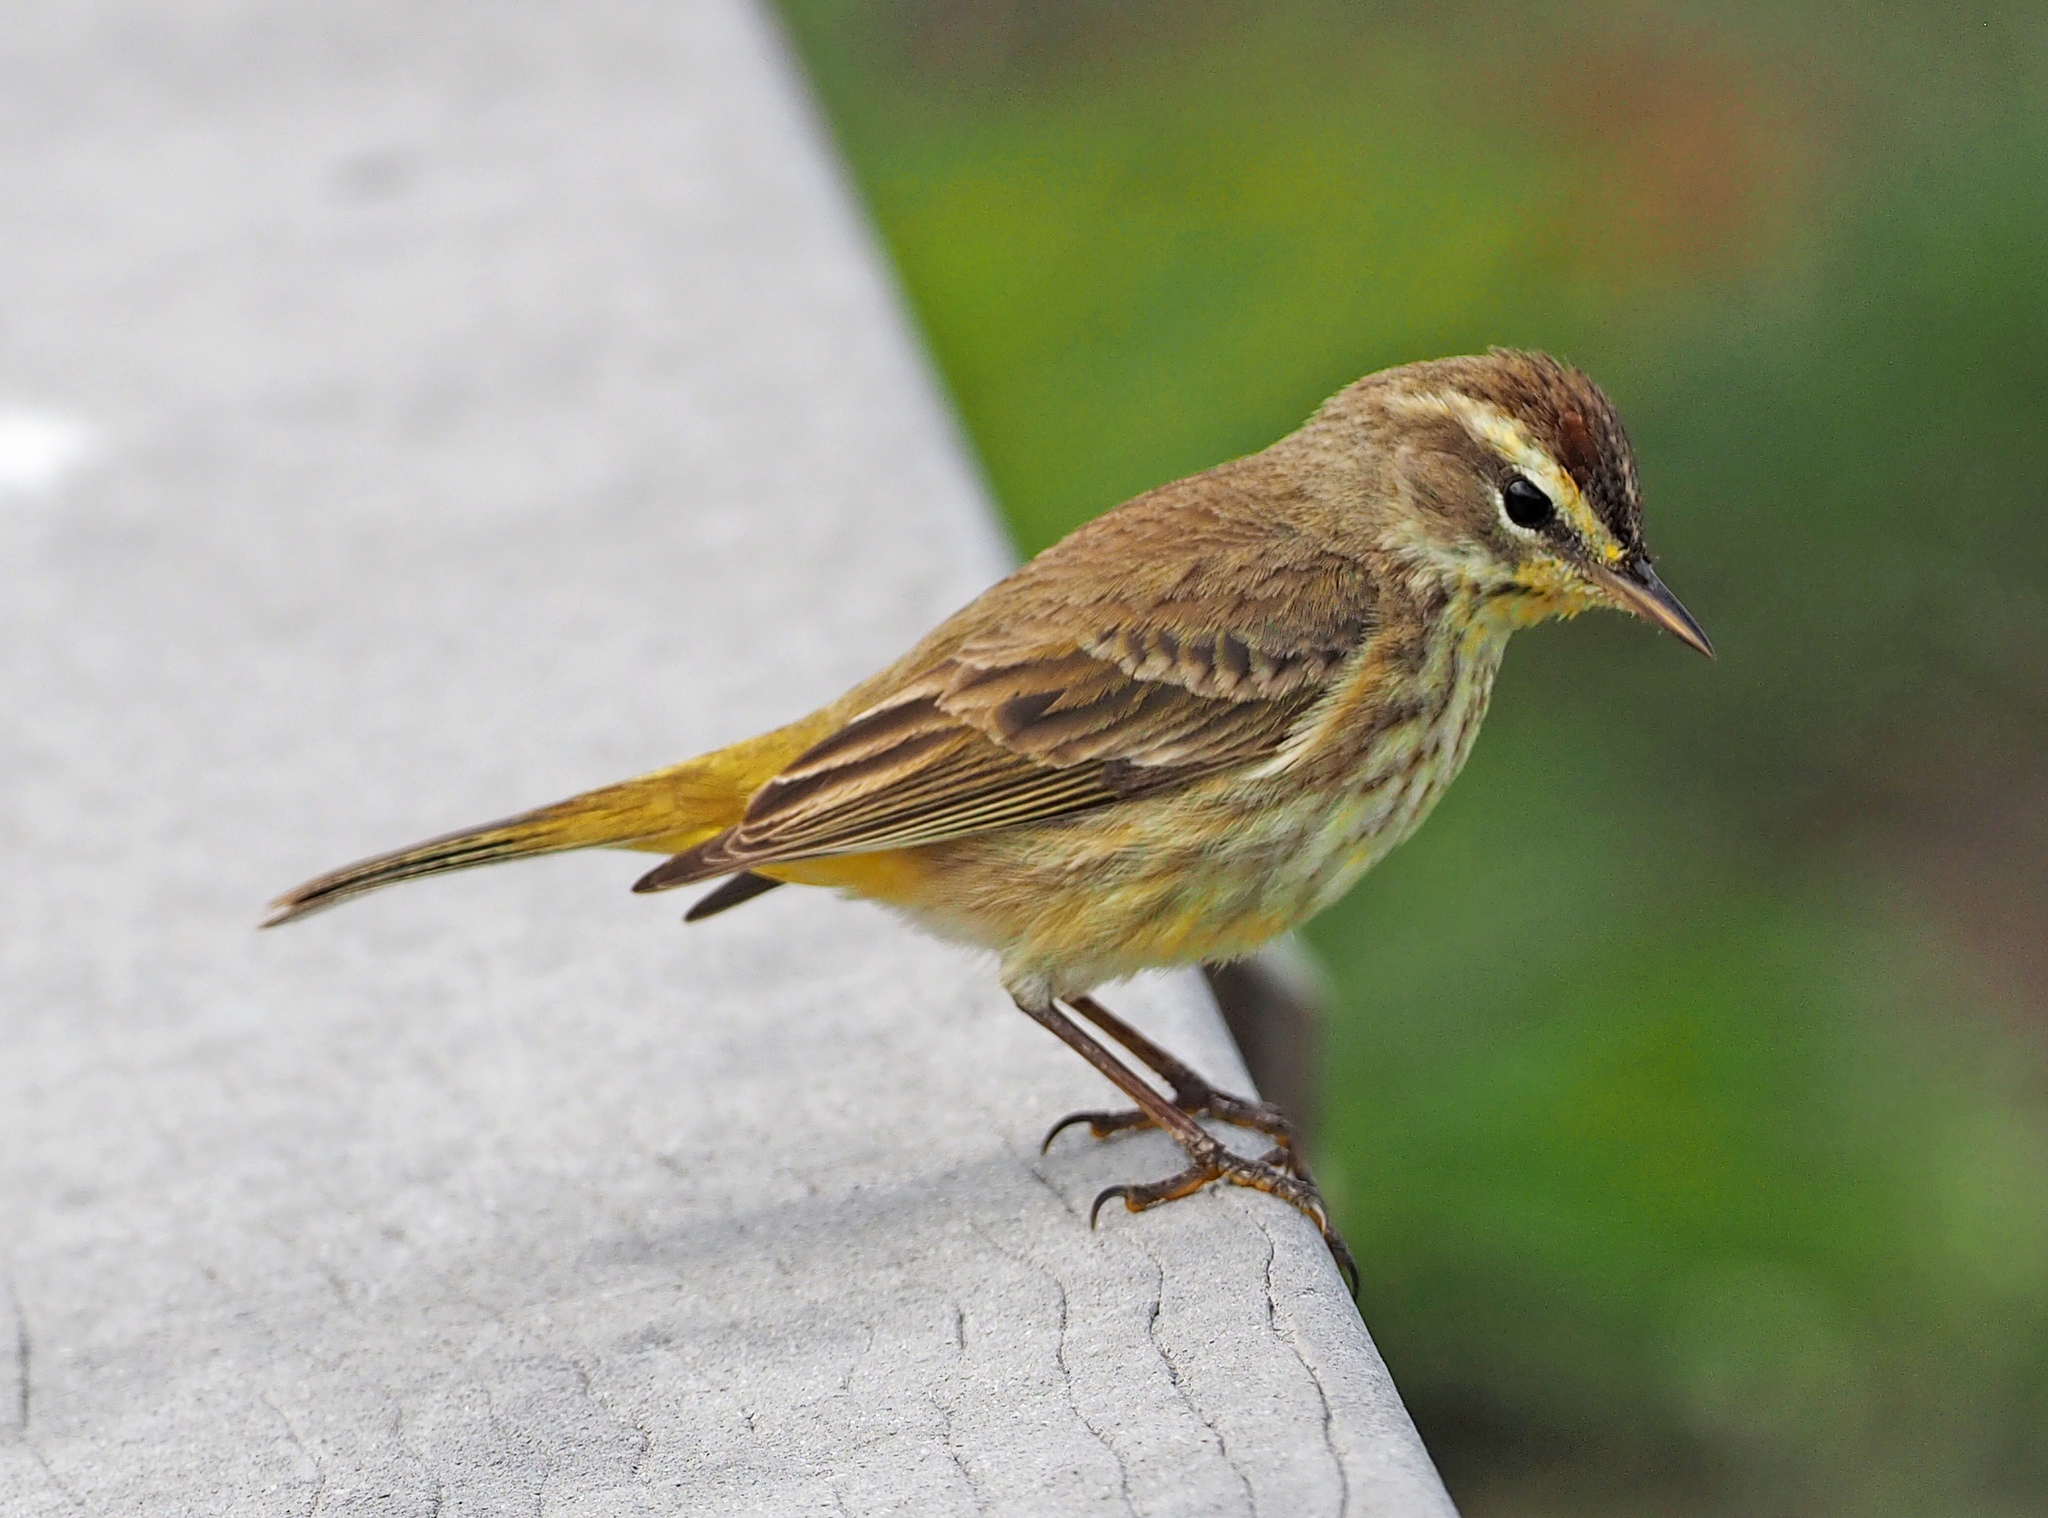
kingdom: Animalia
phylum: Chordata
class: Aves
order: Passeriformes
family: Parulidae
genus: Setophaga
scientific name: Setophaga palmarum
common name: Palm warbler
